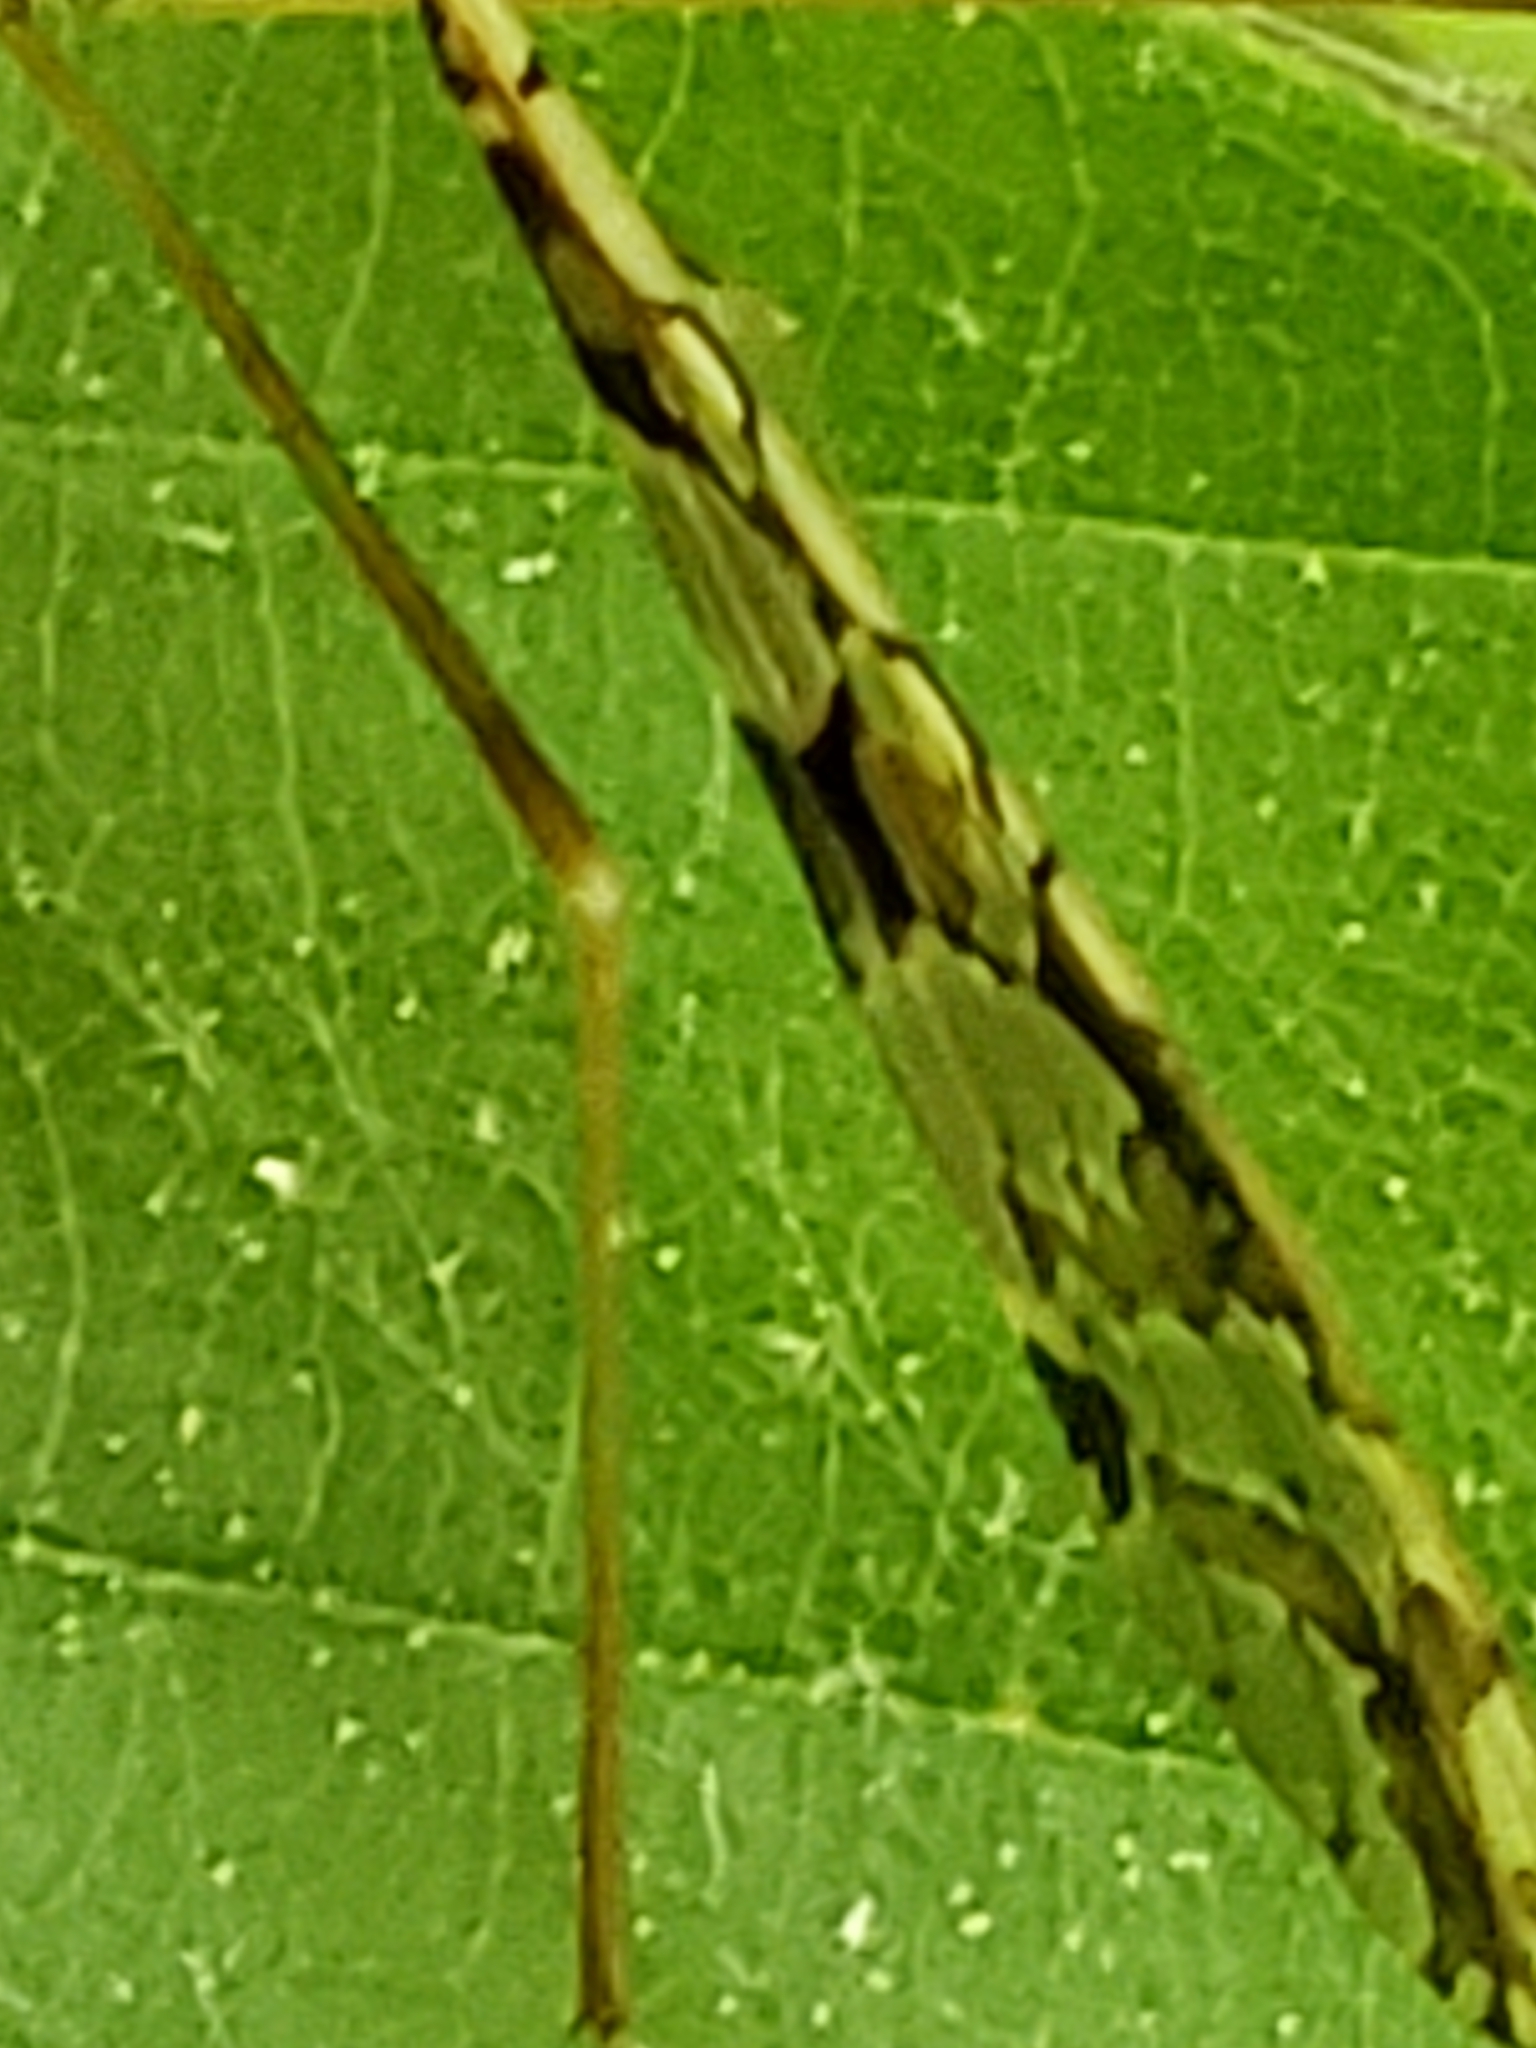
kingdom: Animalia
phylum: Arthropoda
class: Insecta
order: Diptera
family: Limoniidae
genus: Epiphragma
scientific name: Epiphragma solatrix
